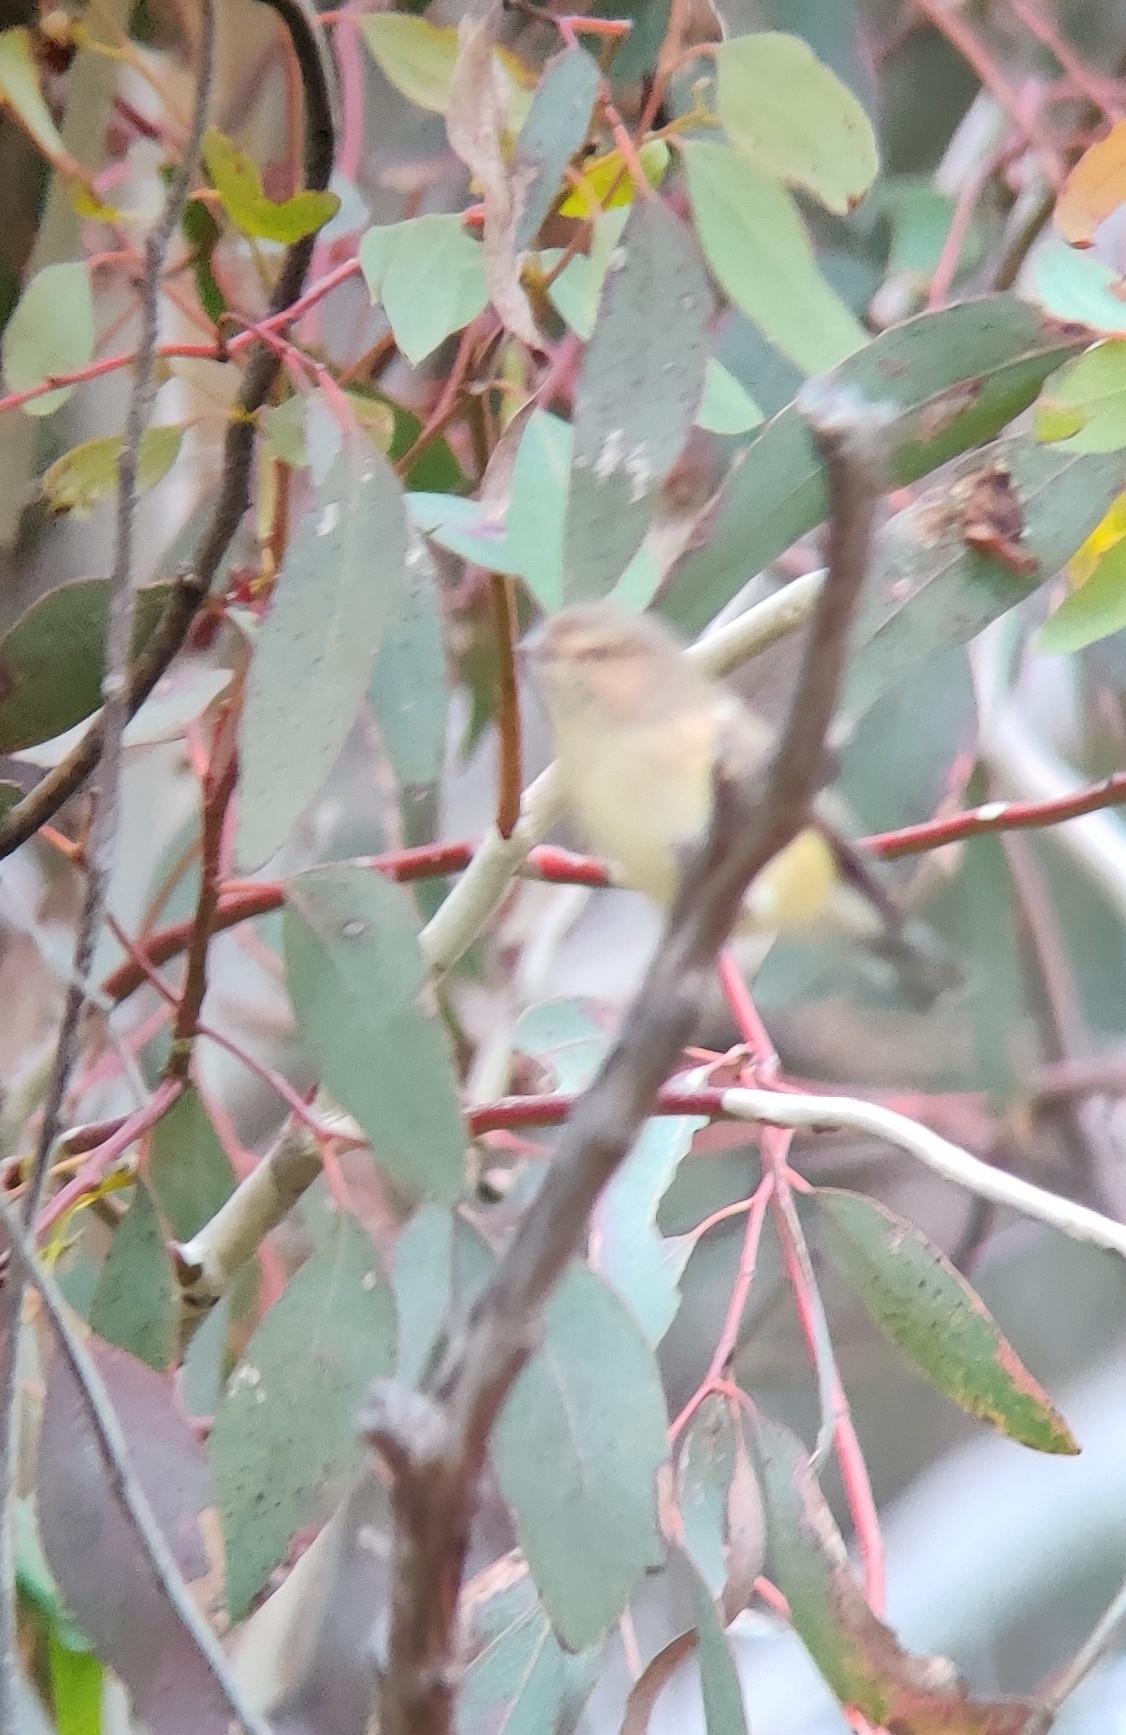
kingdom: Animalia
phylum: Chordata
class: Aves
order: Passeriformes
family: Acanthizidae
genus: Smicrornis
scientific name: Smicrornis brevirostris
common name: Weebill
